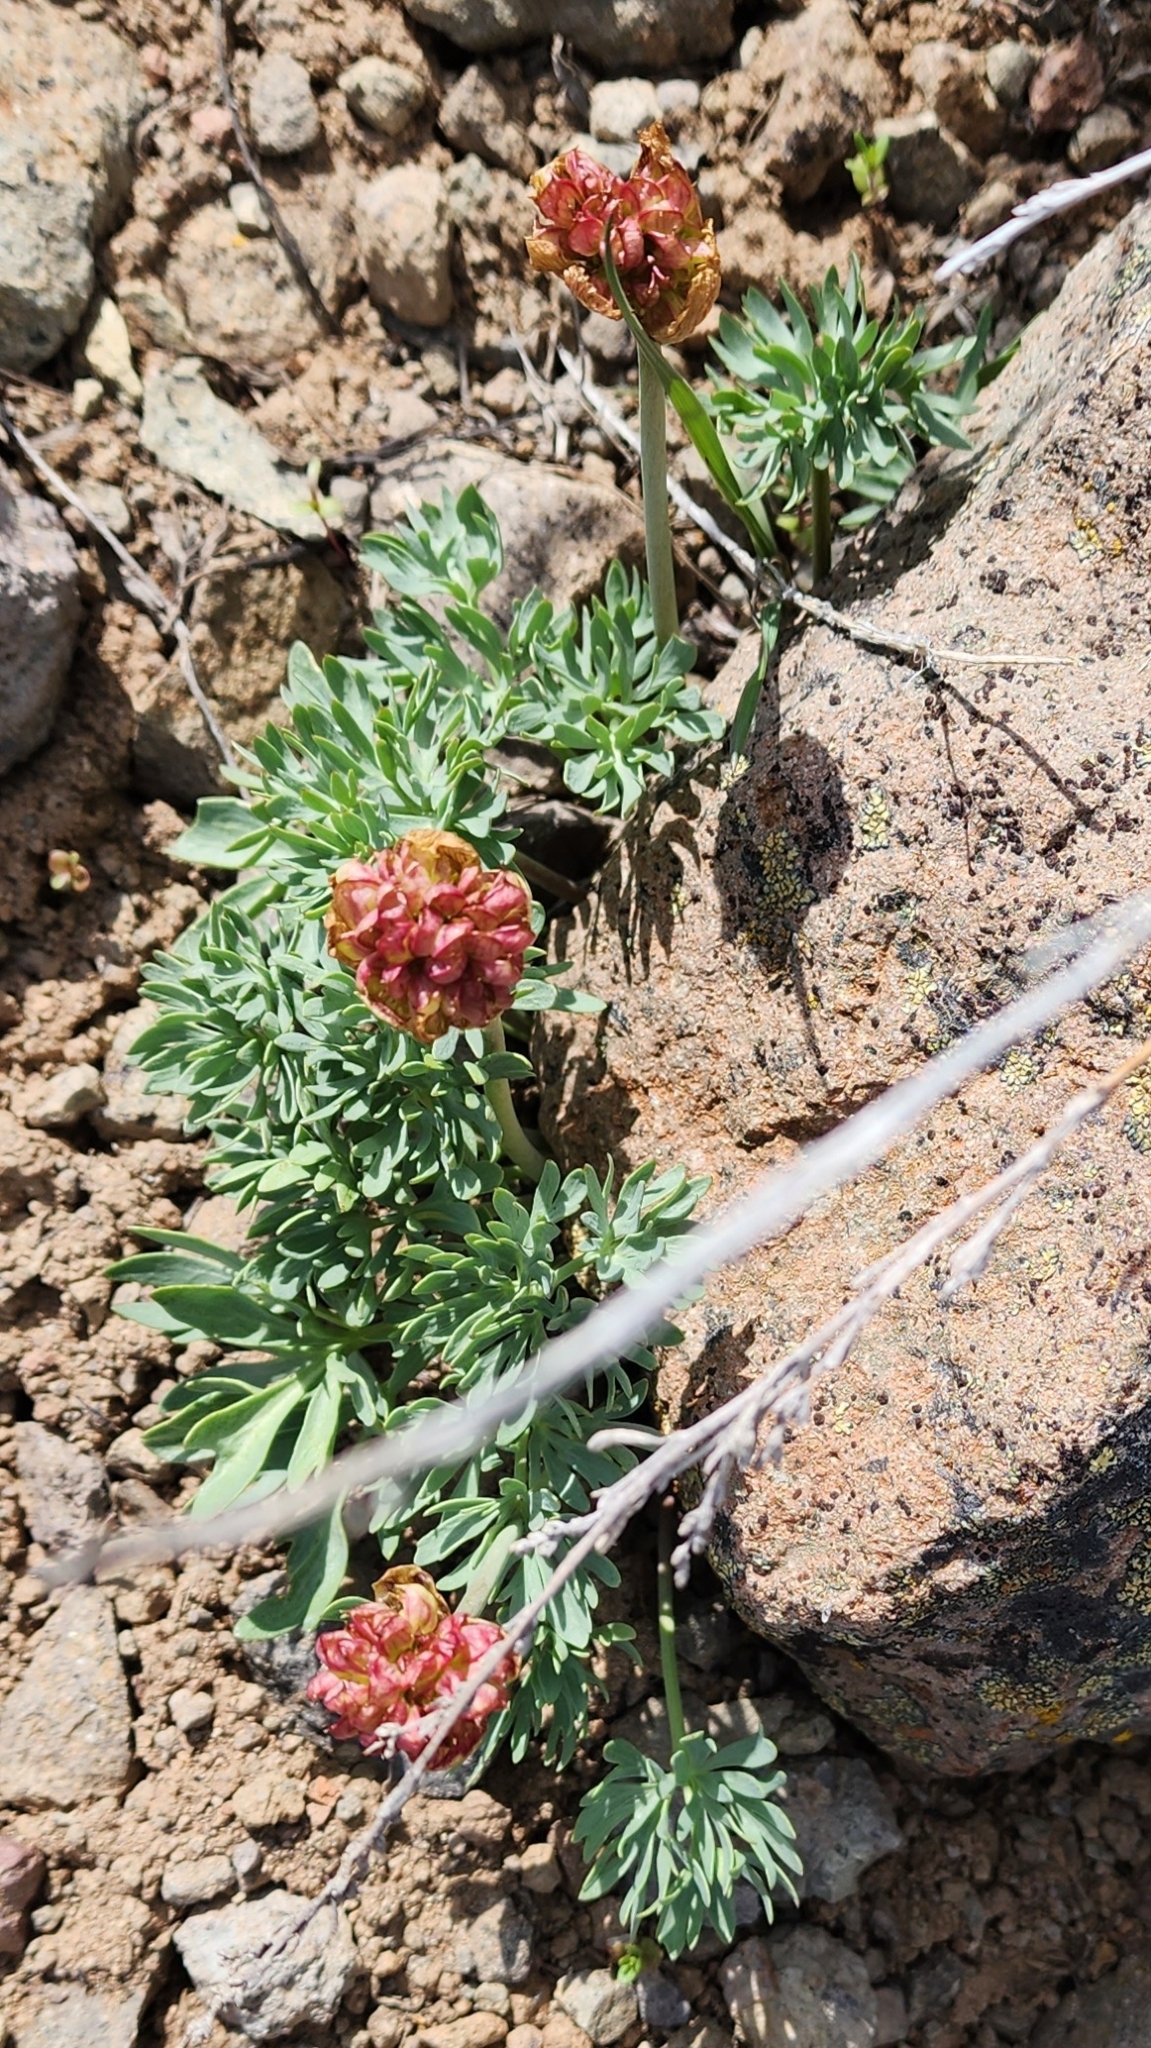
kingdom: Plantae
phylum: Tracheophyta
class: Magnoliopsida
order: Ranunculales
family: Ranunculaceae
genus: Beckwithia
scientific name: Beckwithia andersonii
